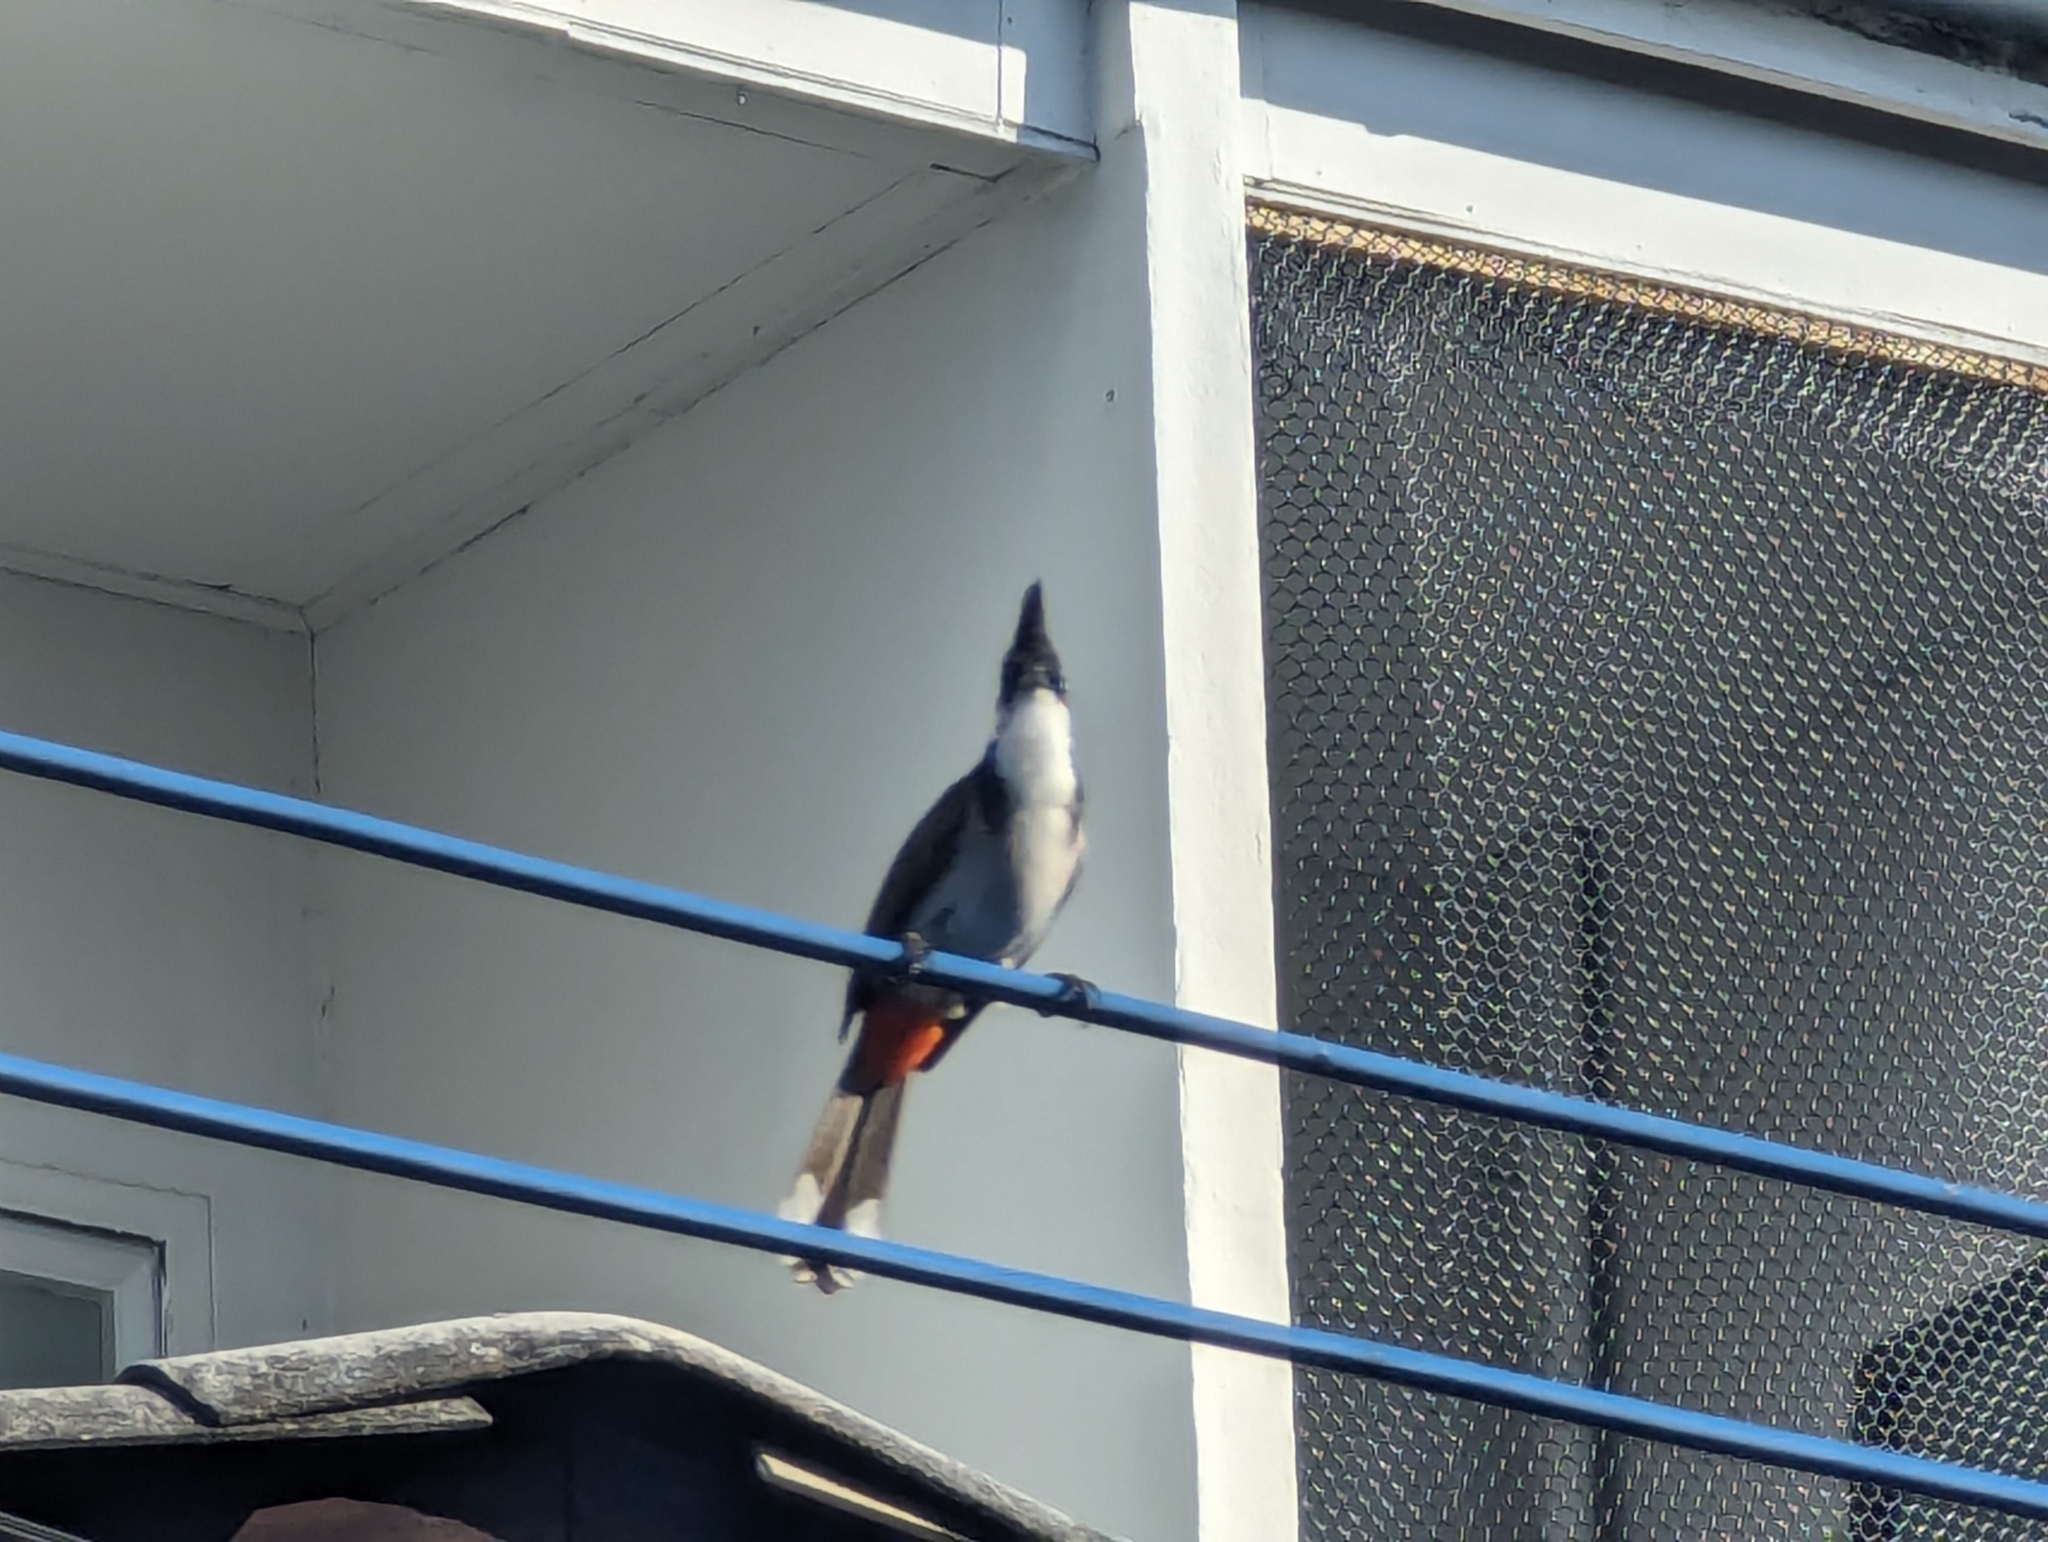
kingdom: Animalia
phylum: Chordata
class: Aves
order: Passeriformes
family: Pycnonotidae
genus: Pycnonotus
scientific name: Pycnonotus jocosus
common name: Red-whiskered bulbul
